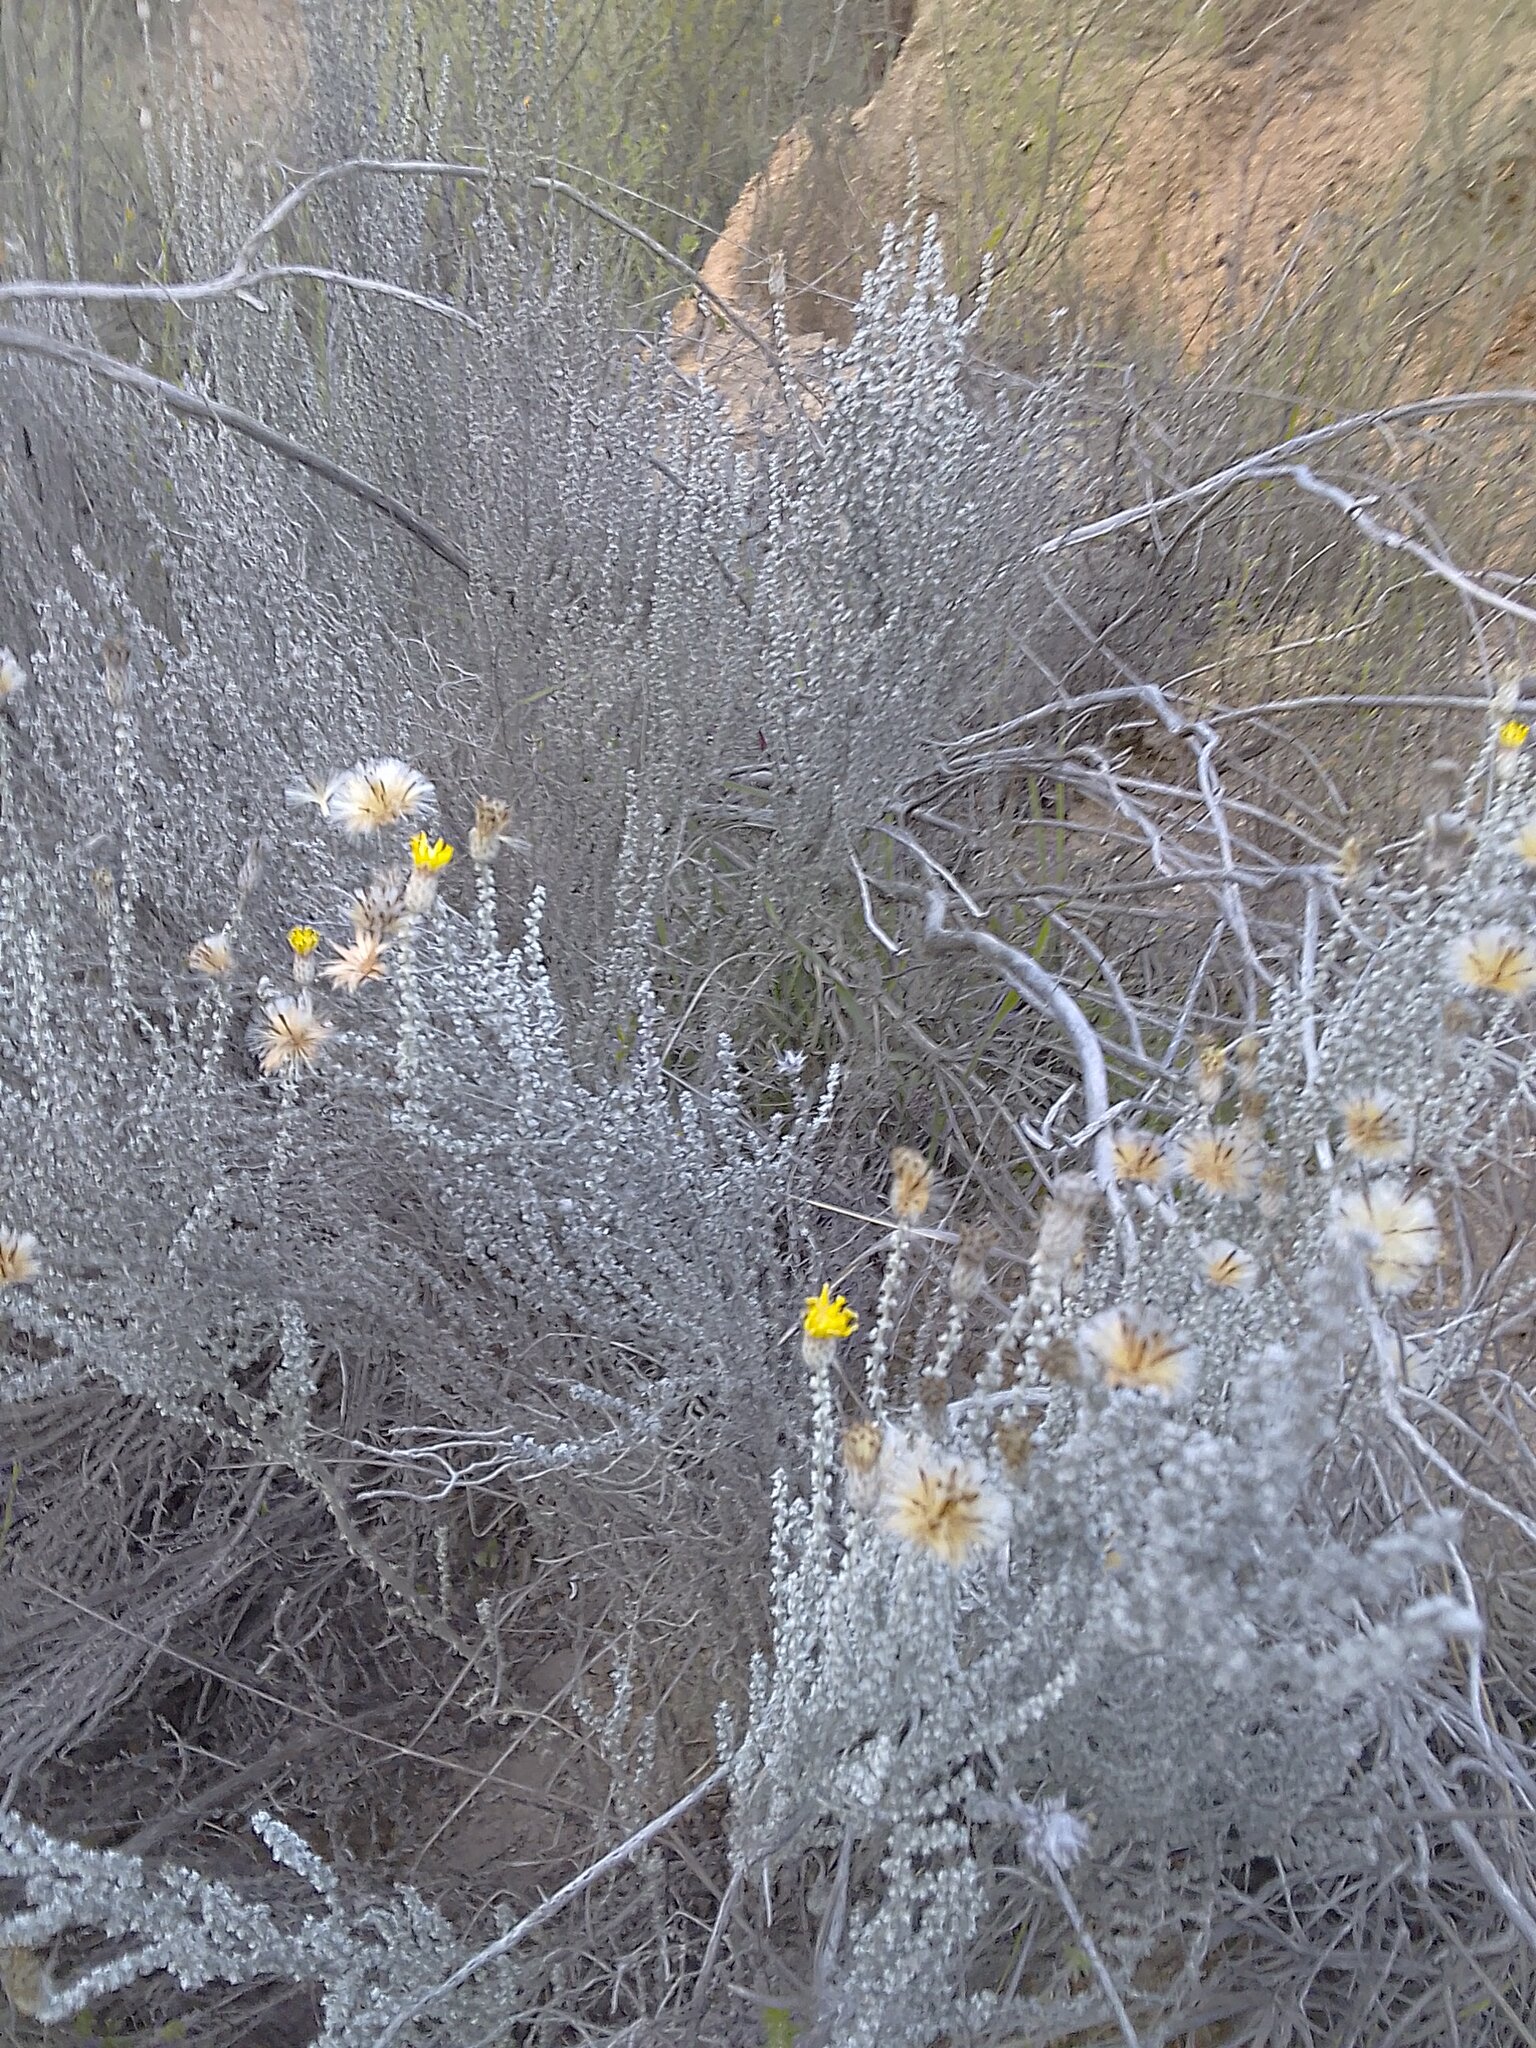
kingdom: Plantae
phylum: Tracheophyta
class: Magnoliopsida
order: Asterales
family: Asteraceae
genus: Lachnospermum
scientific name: Lachnospermum fasciculatum
